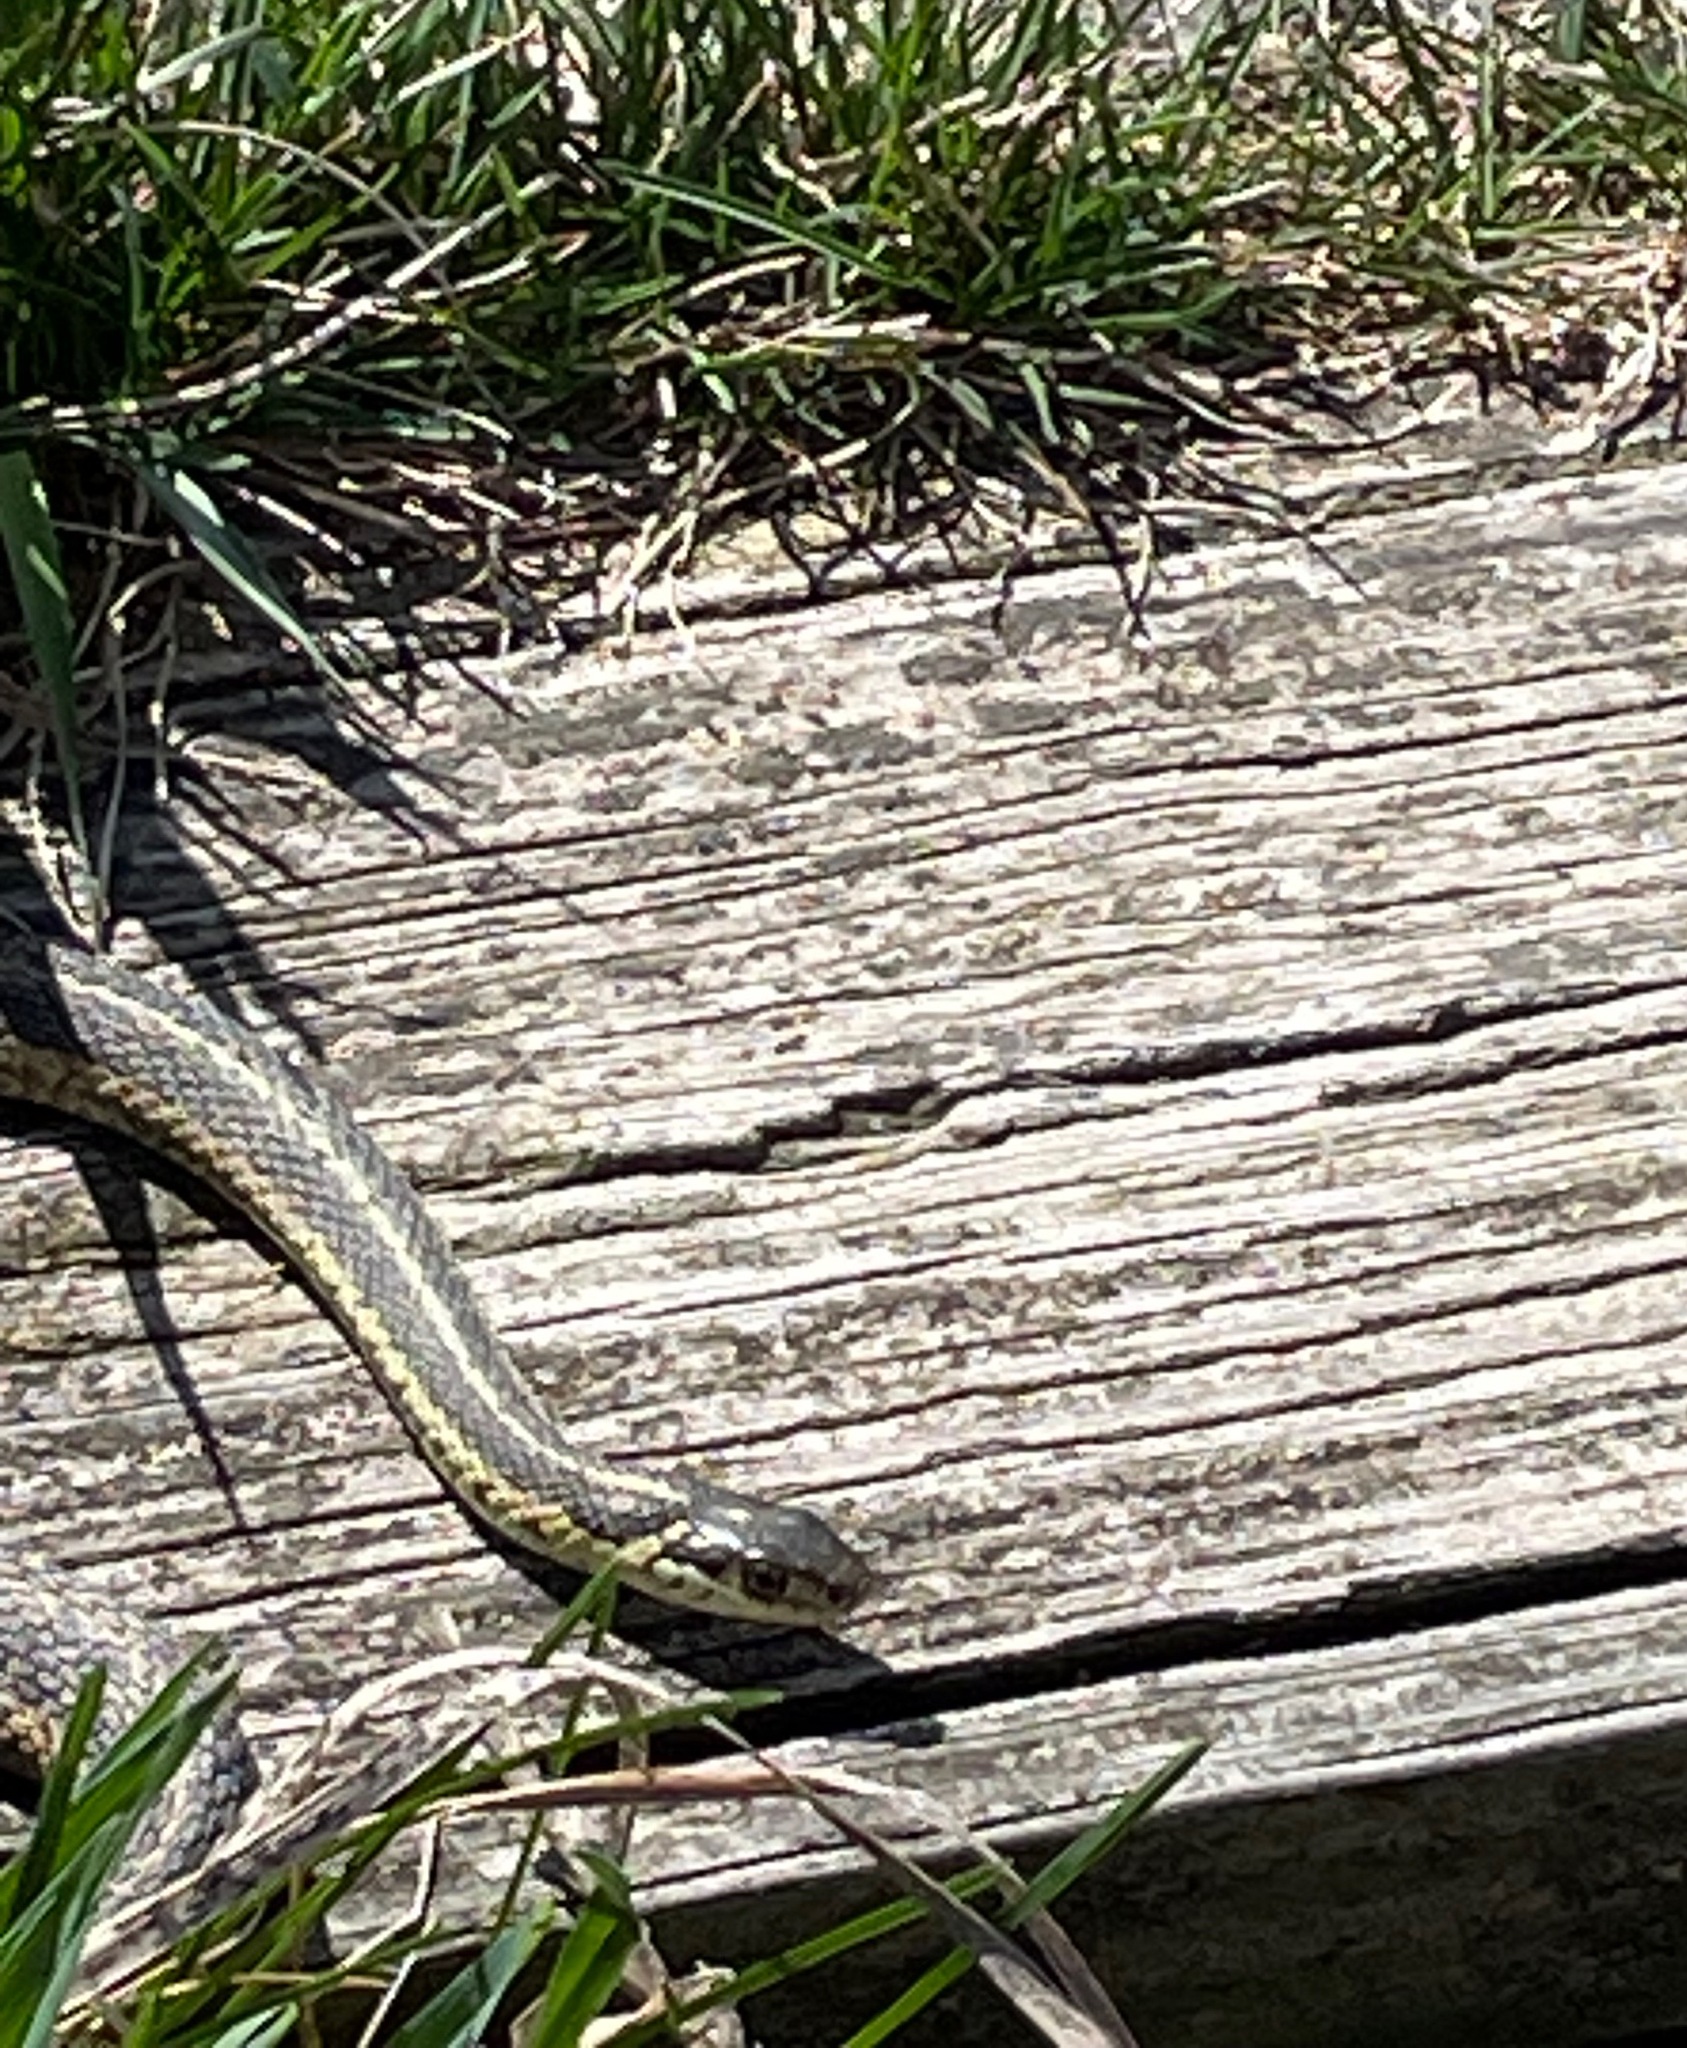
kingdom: Animalia
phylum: Chordata
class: Squamata
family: Colubridae
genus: Thamnophis
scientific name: Thamnophis sirtalis
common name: Common garter snake
